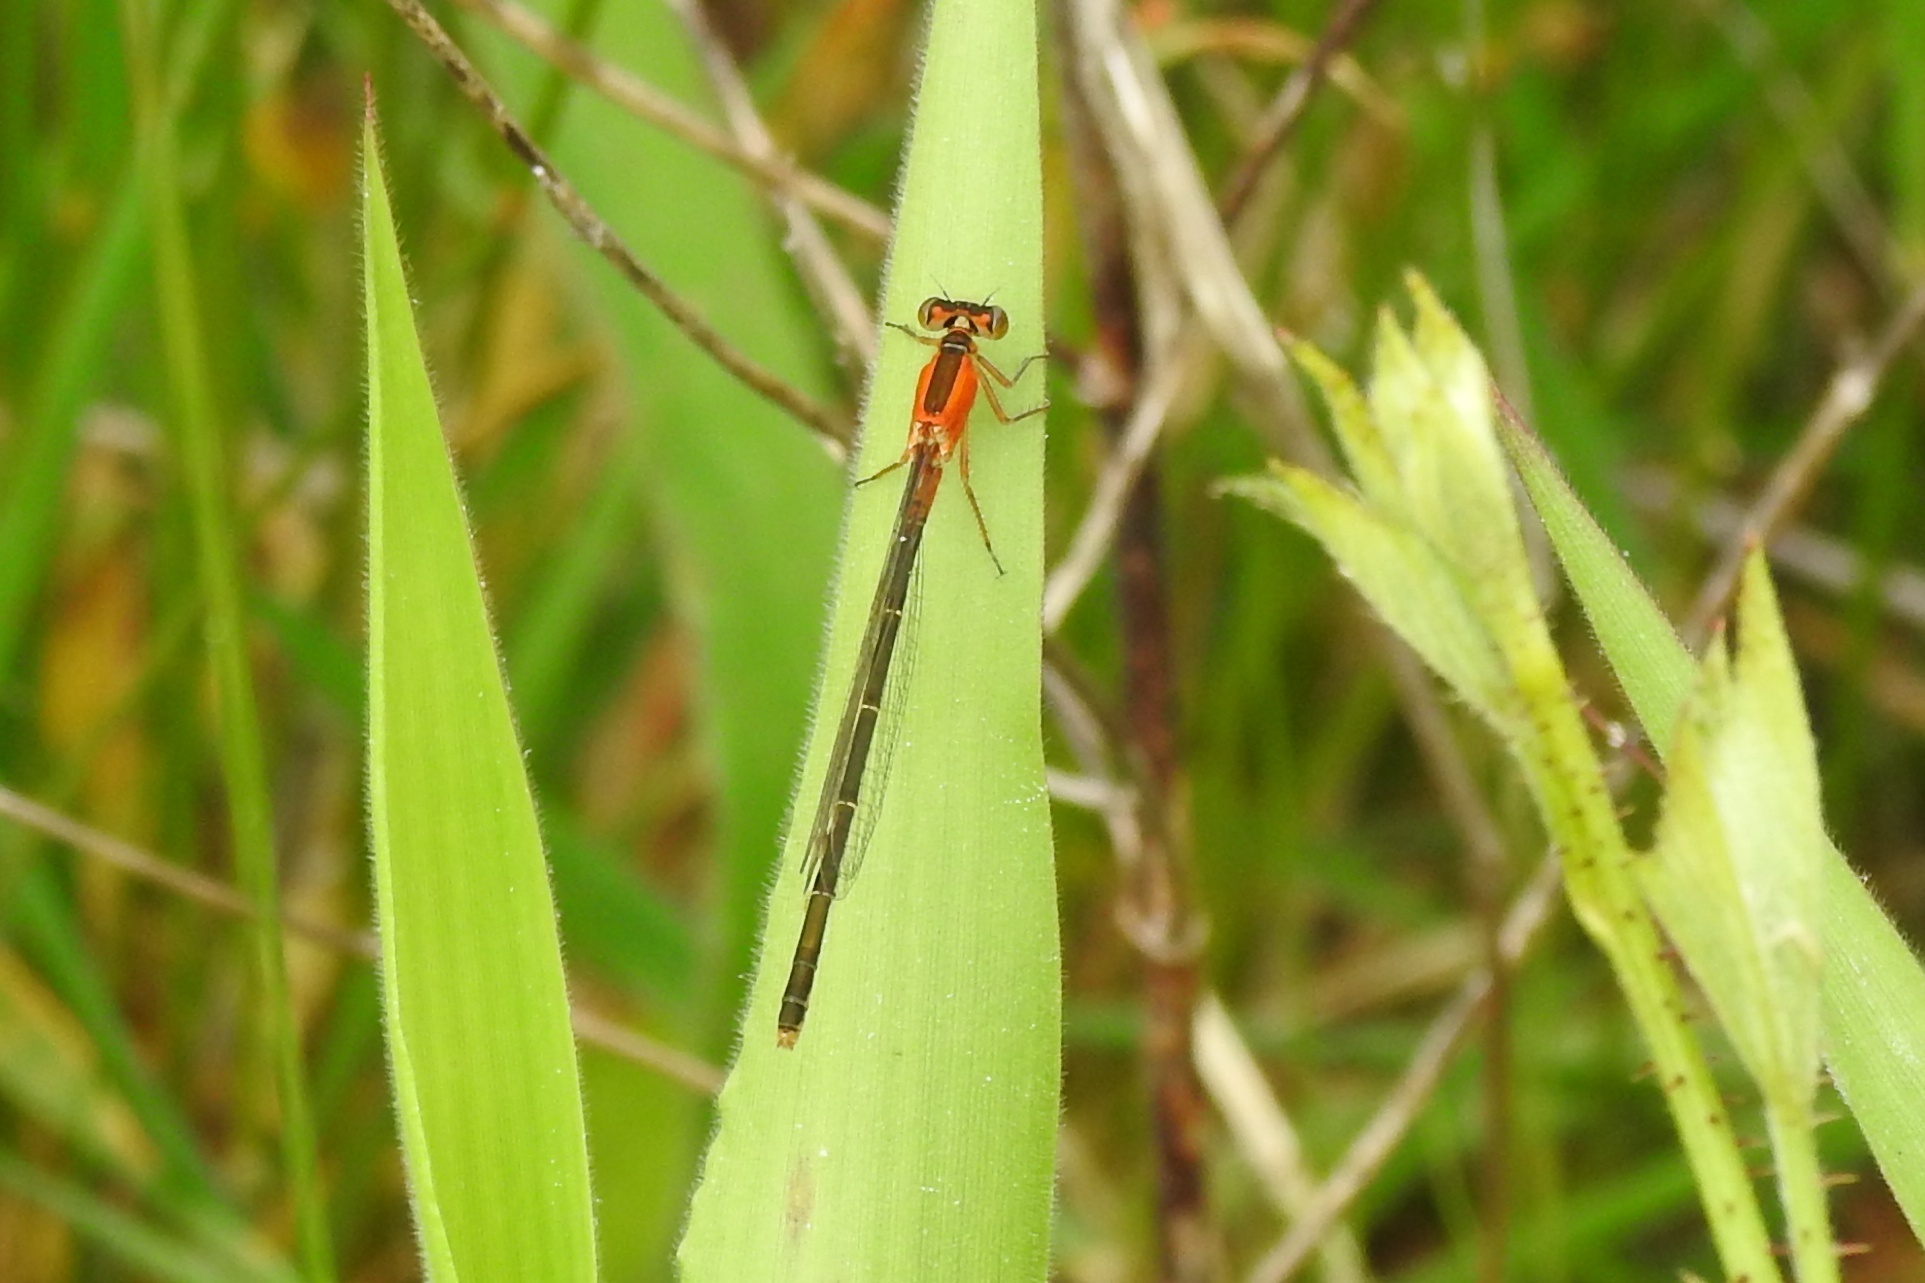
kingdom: Animalia
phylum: Arthropoda
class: Insecta
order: Odonata
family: Coenagrionidae
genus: Ischnura
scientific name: Ischnura ramburii
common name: Rambur's forktail
